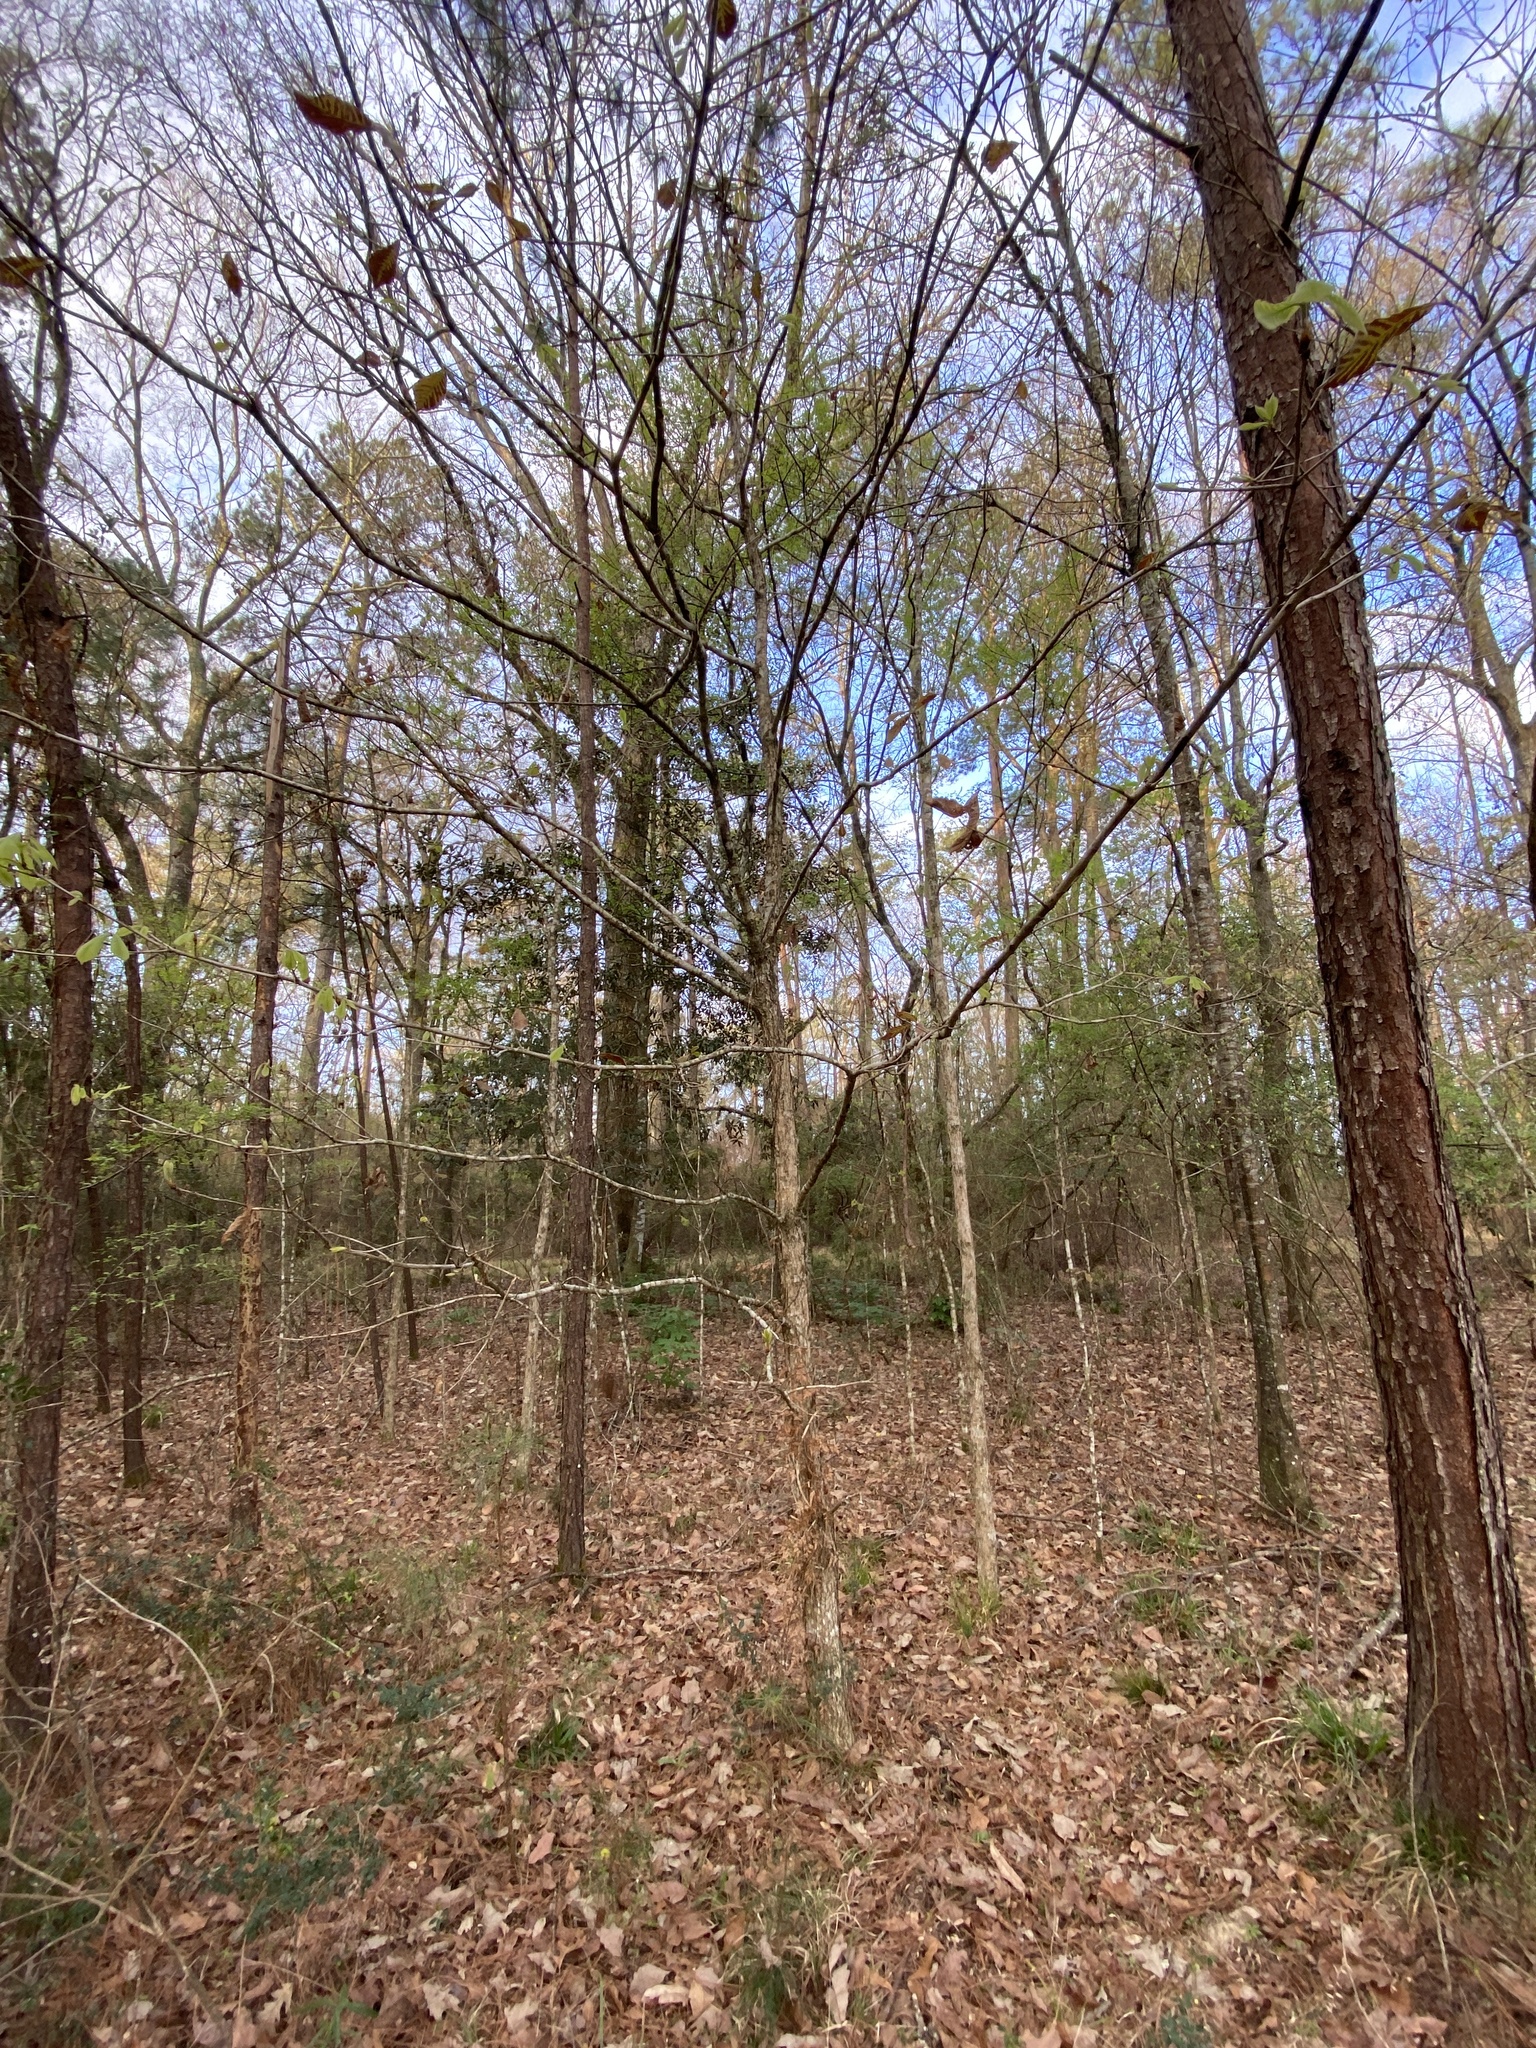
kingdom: Plantae
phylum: Tracheophyta
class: Magnoliopsida
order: Fagales
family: Fagaceae
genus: Quercus
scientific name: Quercus michauxii
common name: Swamp chestnut oak
